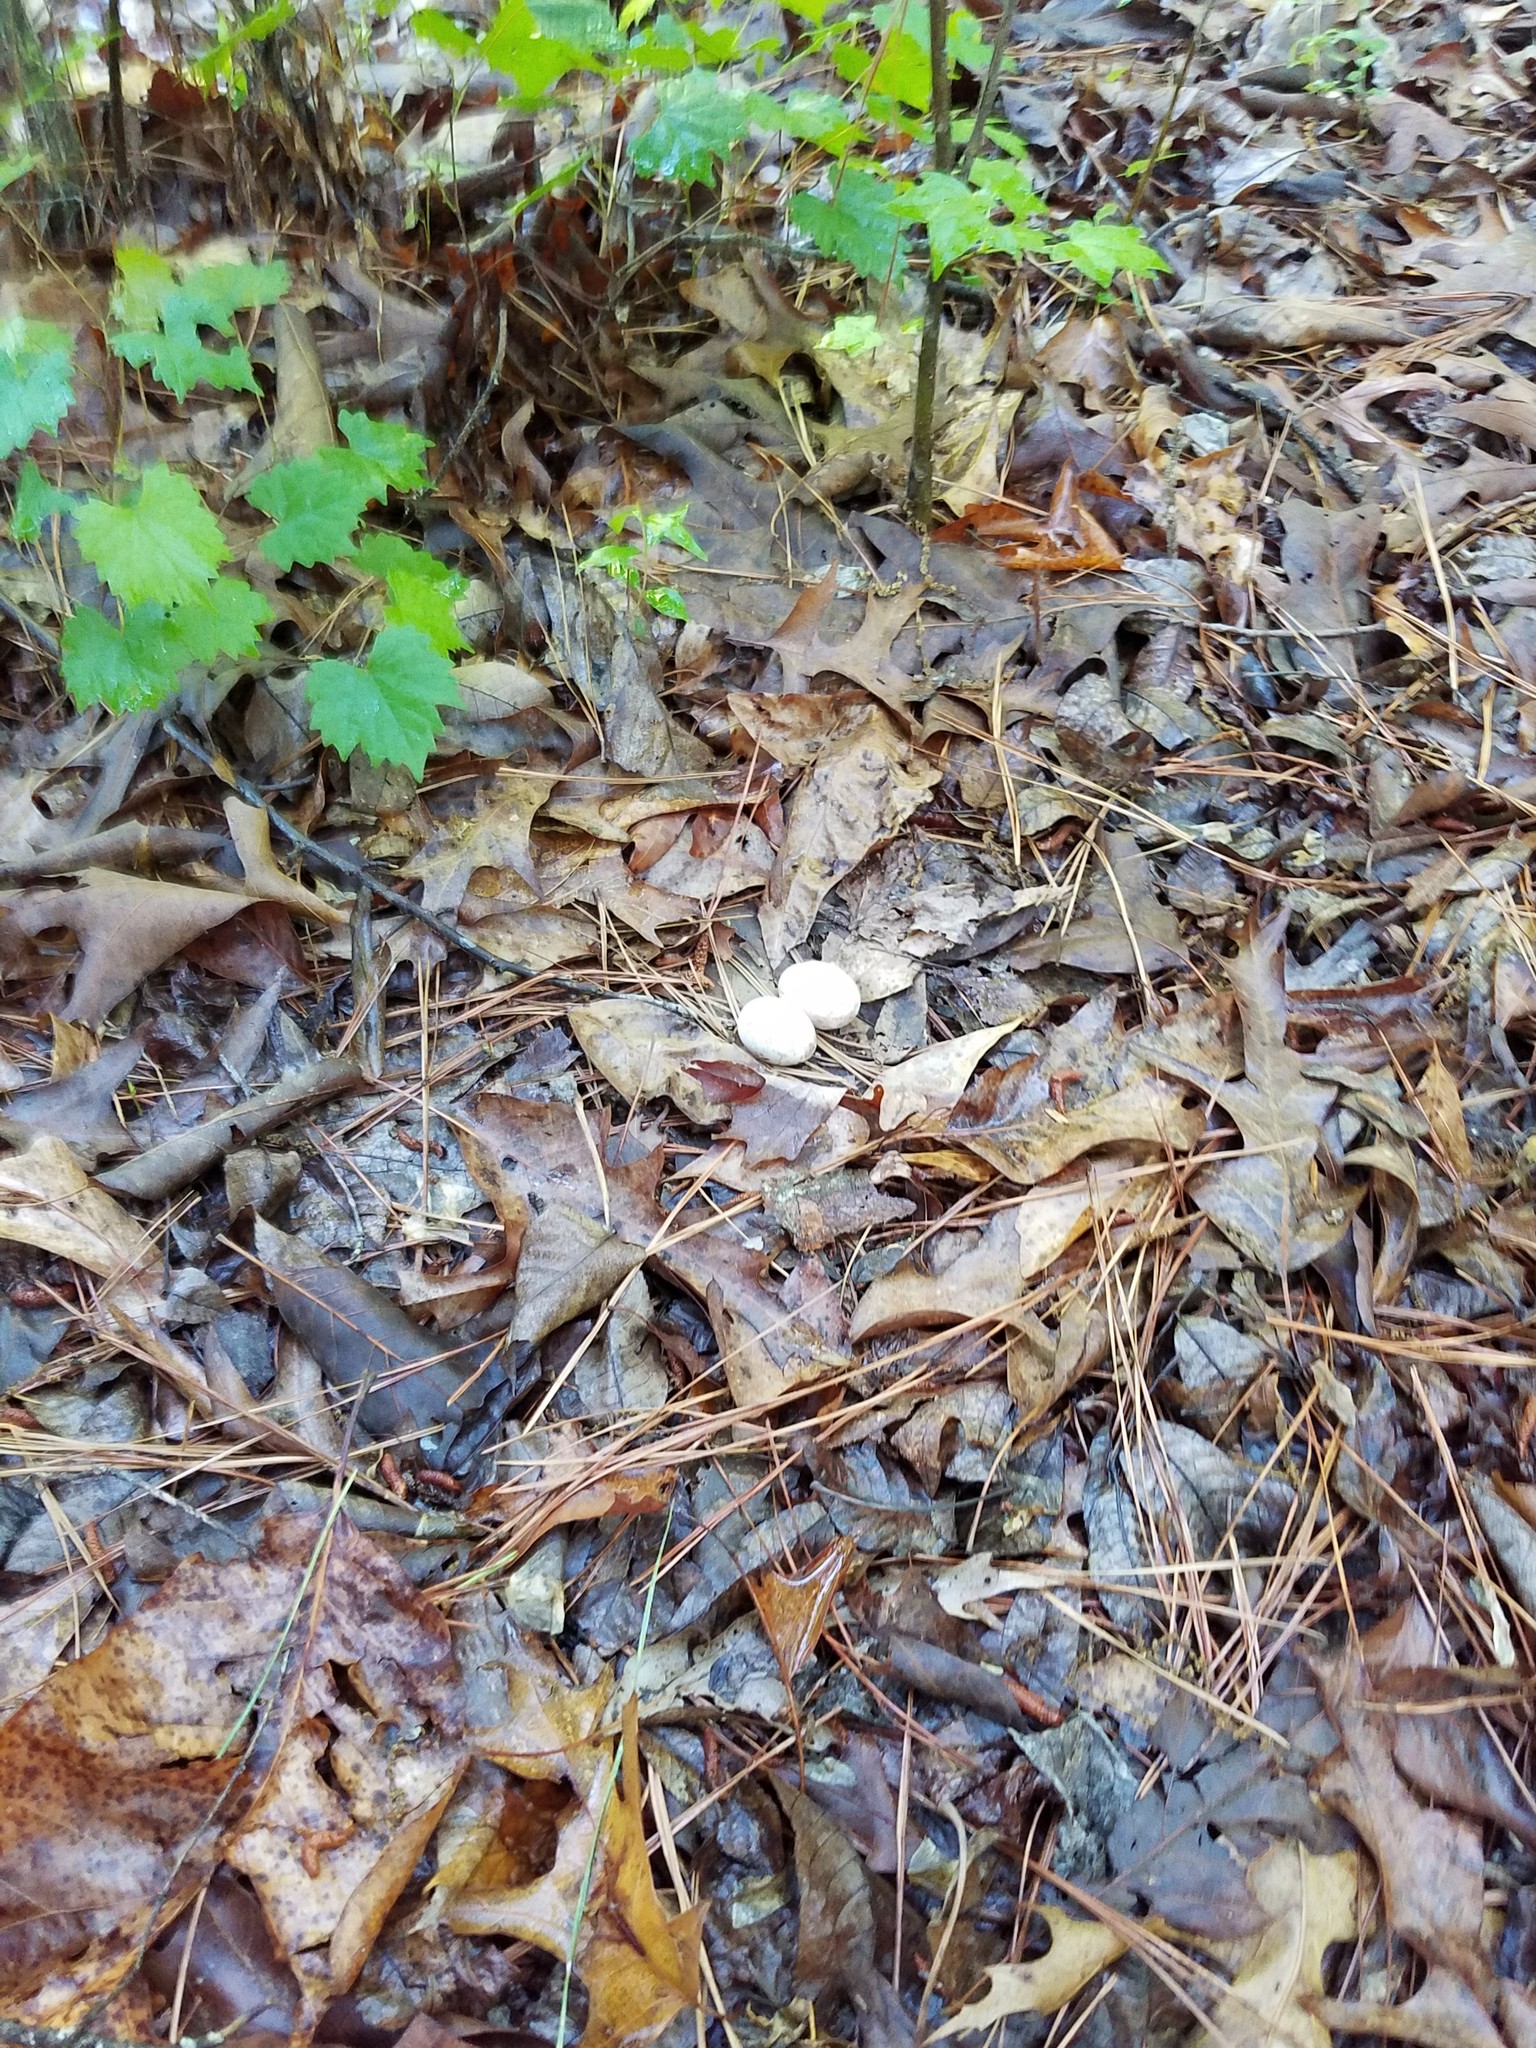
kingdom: Animalia
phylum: Chordata
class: Aves
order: Caprimulgiformes
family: Caprimulgidae
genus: Antrostomus
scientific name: Antrostomus carolinensis
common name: Chuck-will's-widow
